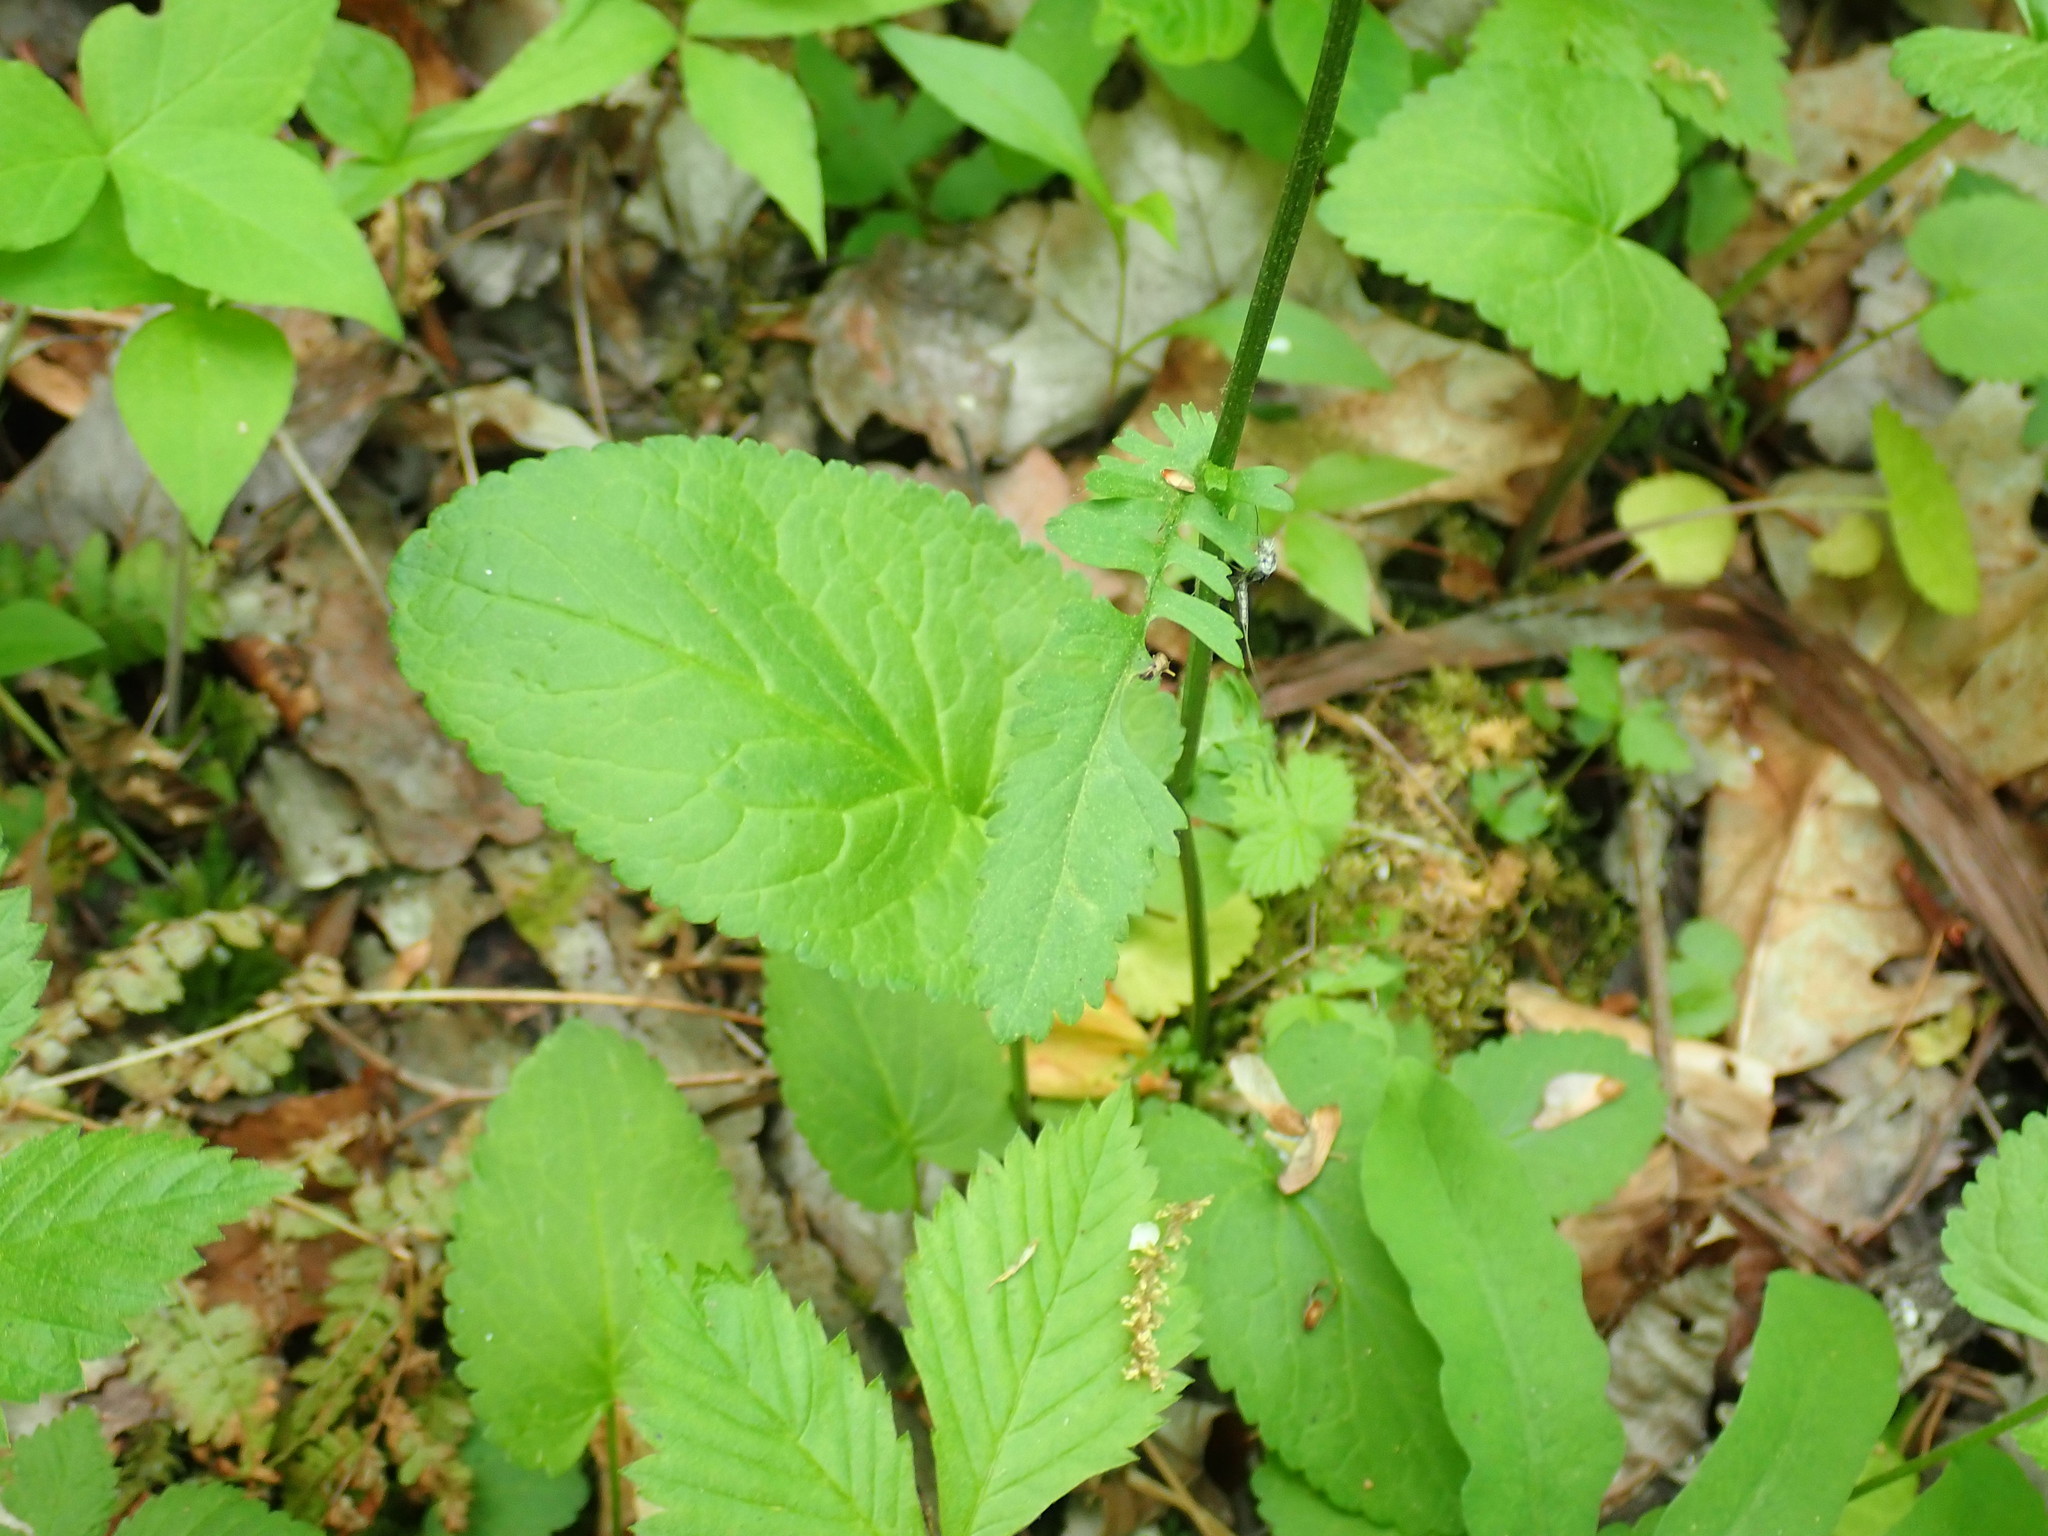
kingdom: Plantae
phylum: Tracheophyta
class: Magnoliopsida
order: Asterales
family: Asteraceae
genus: Packera
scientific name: Packera aurea
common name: Golden groundsel
